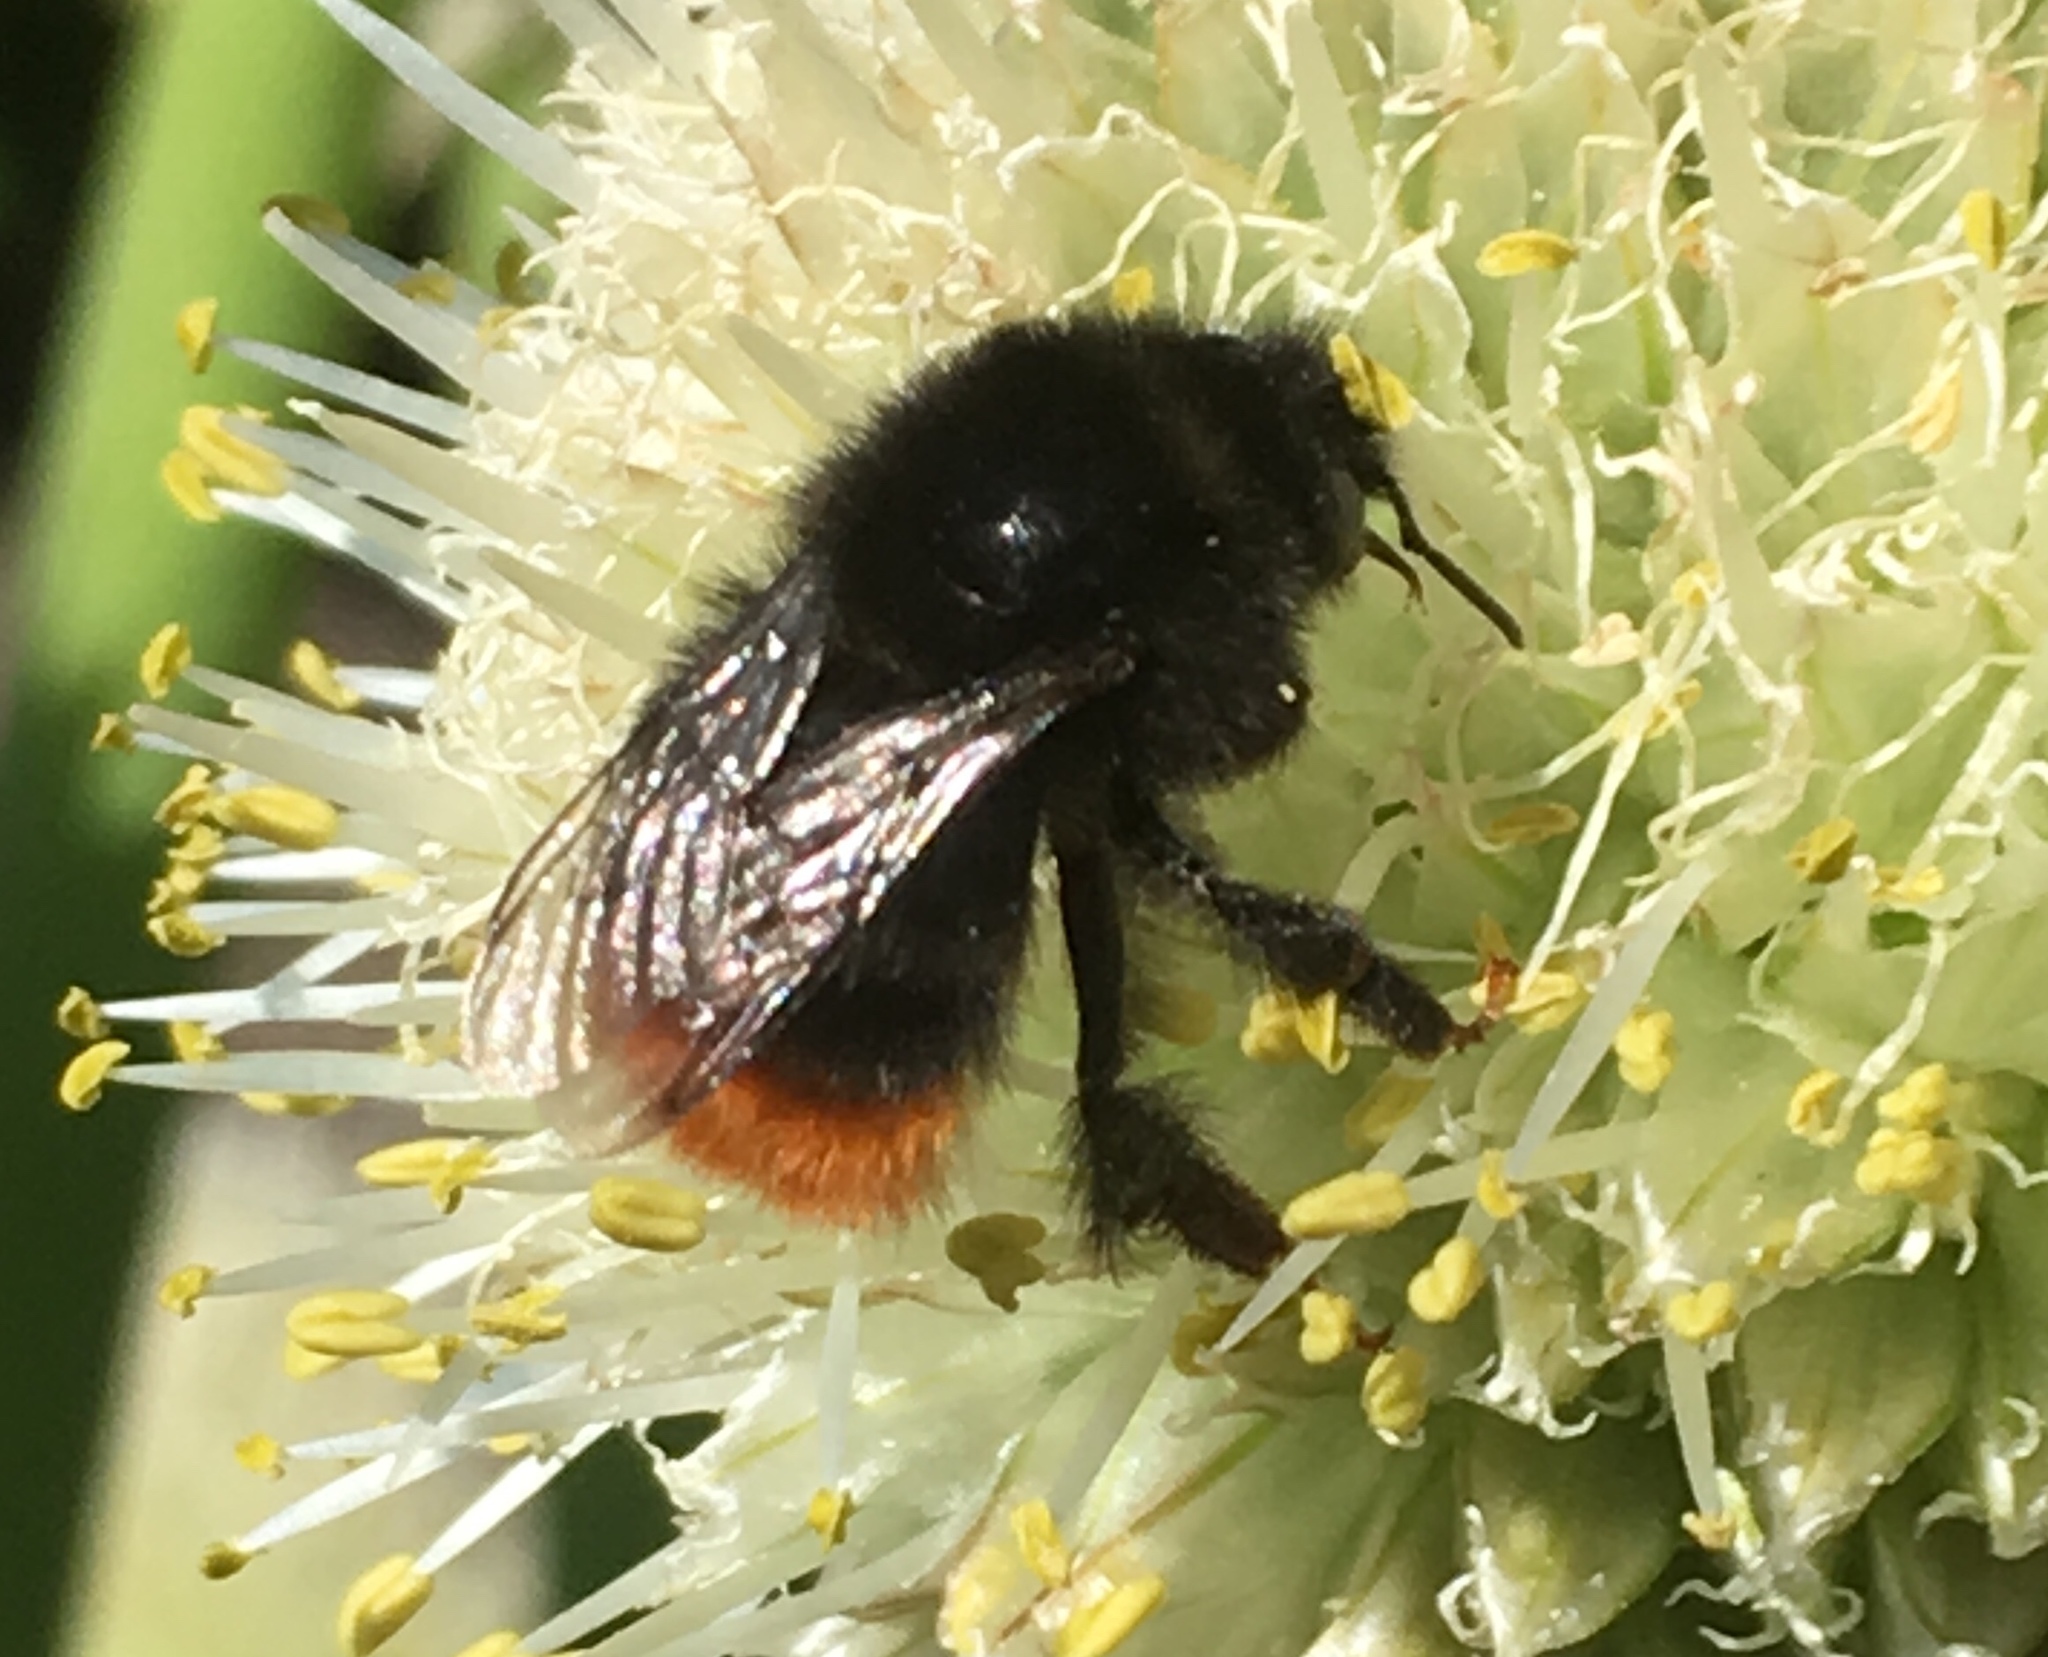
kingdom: Animalia
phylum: Arthropoda
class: Insecta
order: Hymenoptera
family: Apidae
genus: Bombus
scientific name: Bombus lapidarius
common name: Large red-tailed humble-bee
